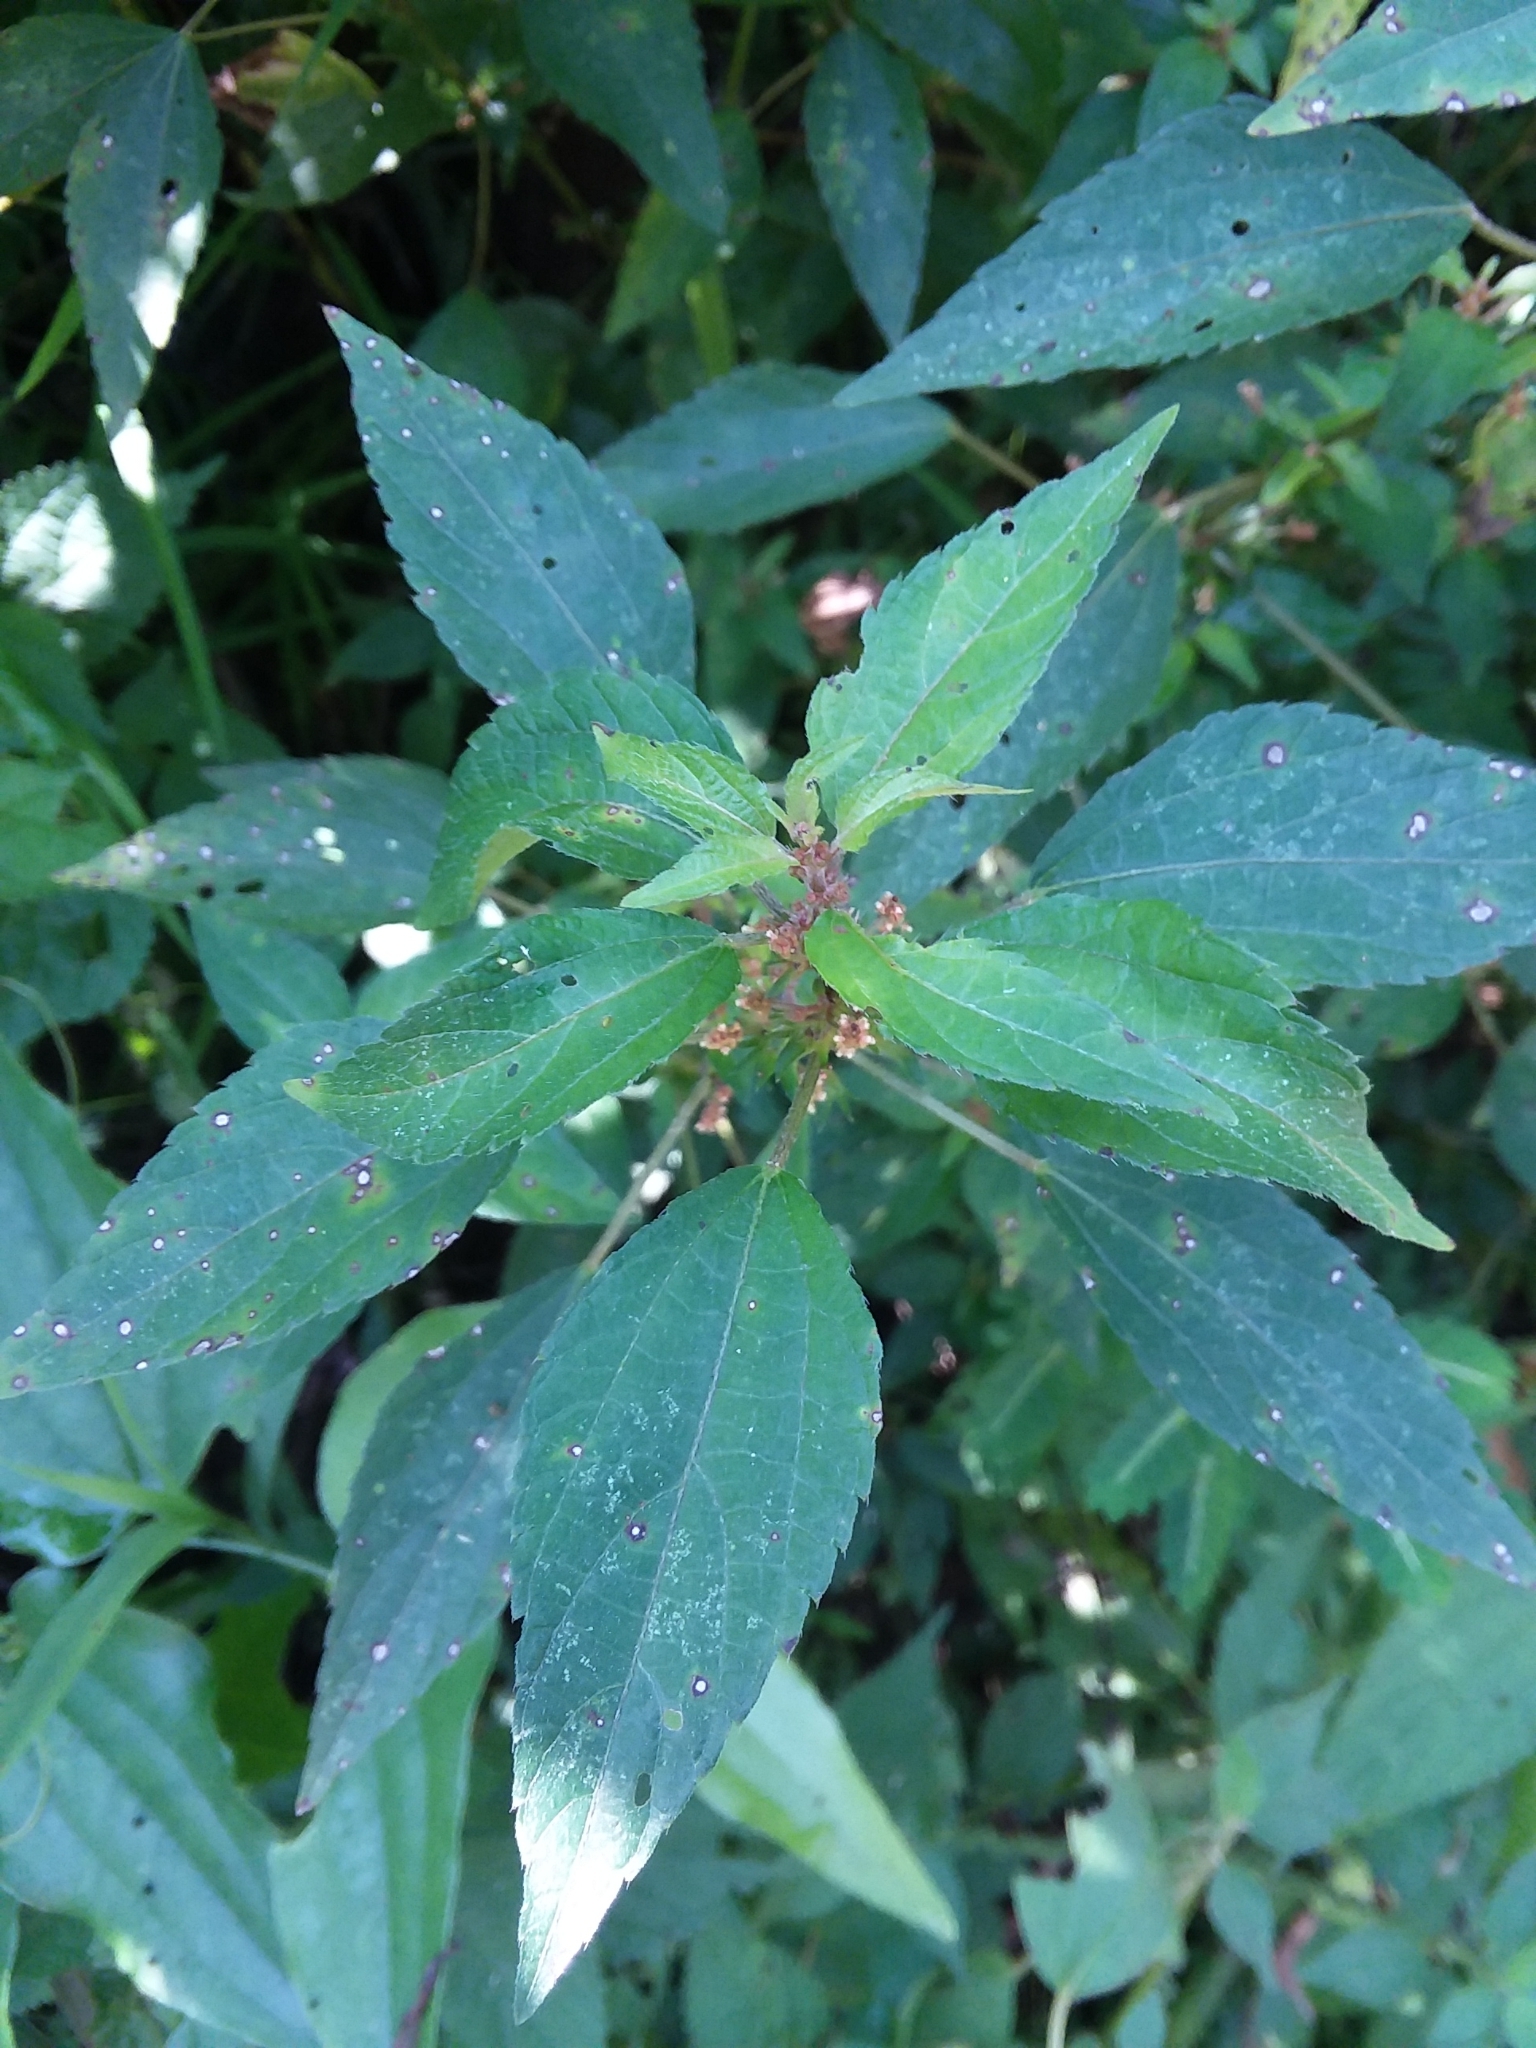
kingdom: Plantae
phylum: Tracheophyta
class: Magnoliopsida
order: Malpighiales
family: Euphorbiaceae
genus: Acalypha
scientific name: Acalypha rhomboidea
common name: Rhombic copperleaf
